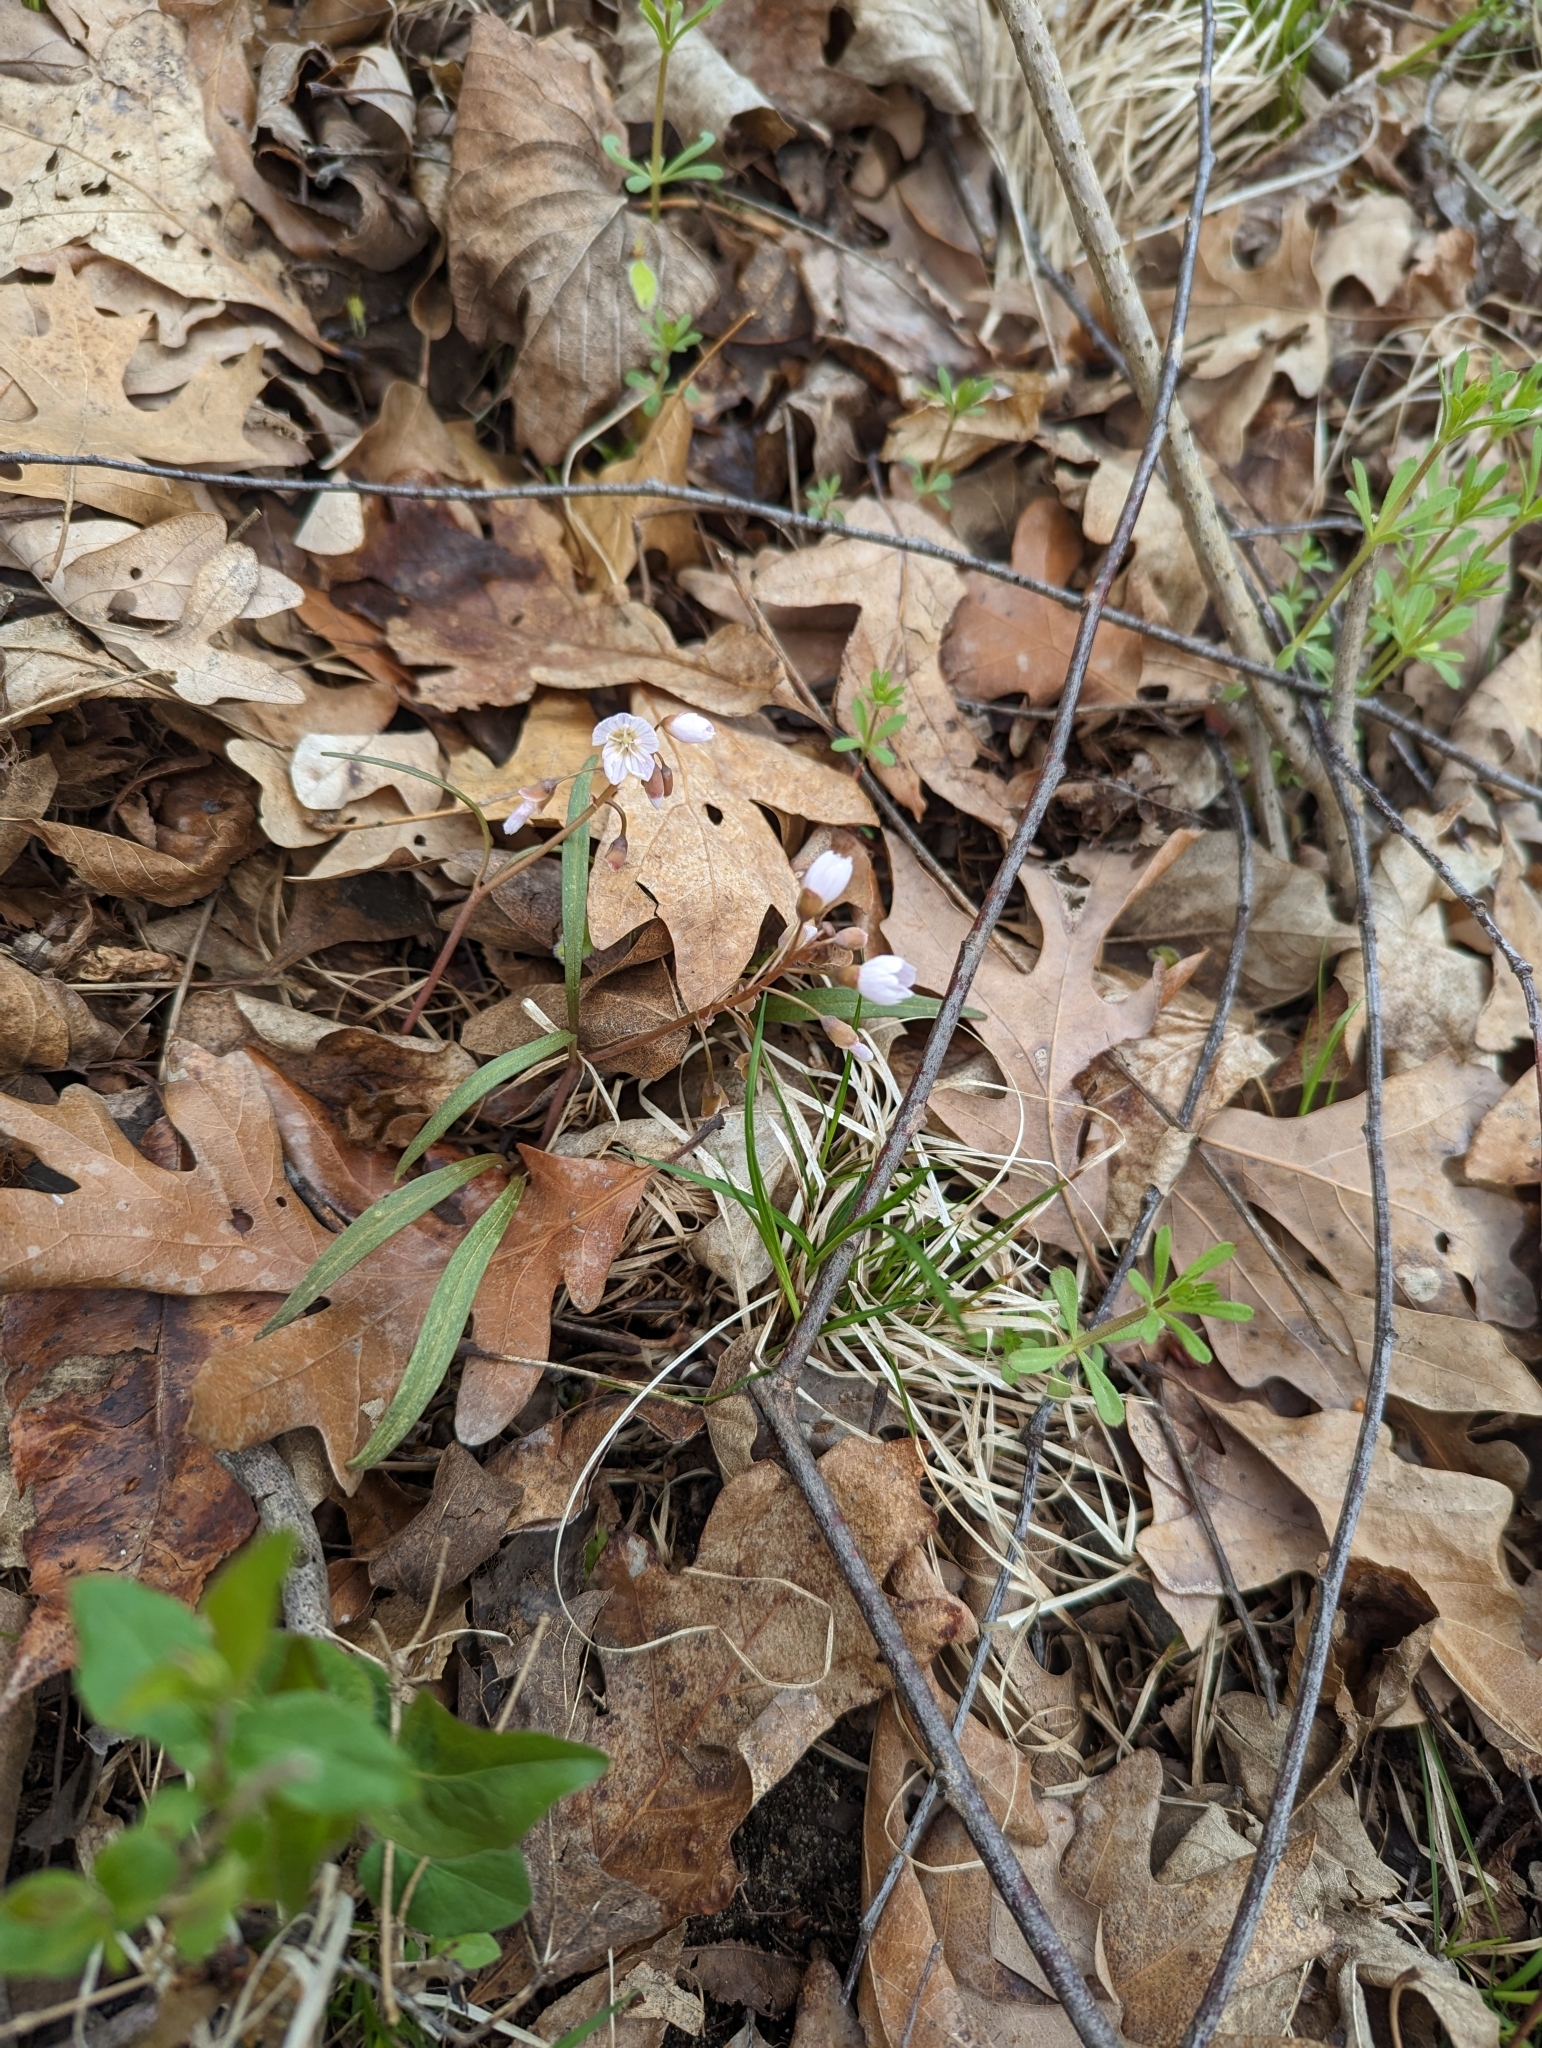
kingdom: Plantae
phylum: Tracheophyta
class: Magnoliopsida
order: Caryophyllales
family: Montiaceae
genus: Claytonia
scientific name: Claytonia virginica
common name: Virginia springbeauty
